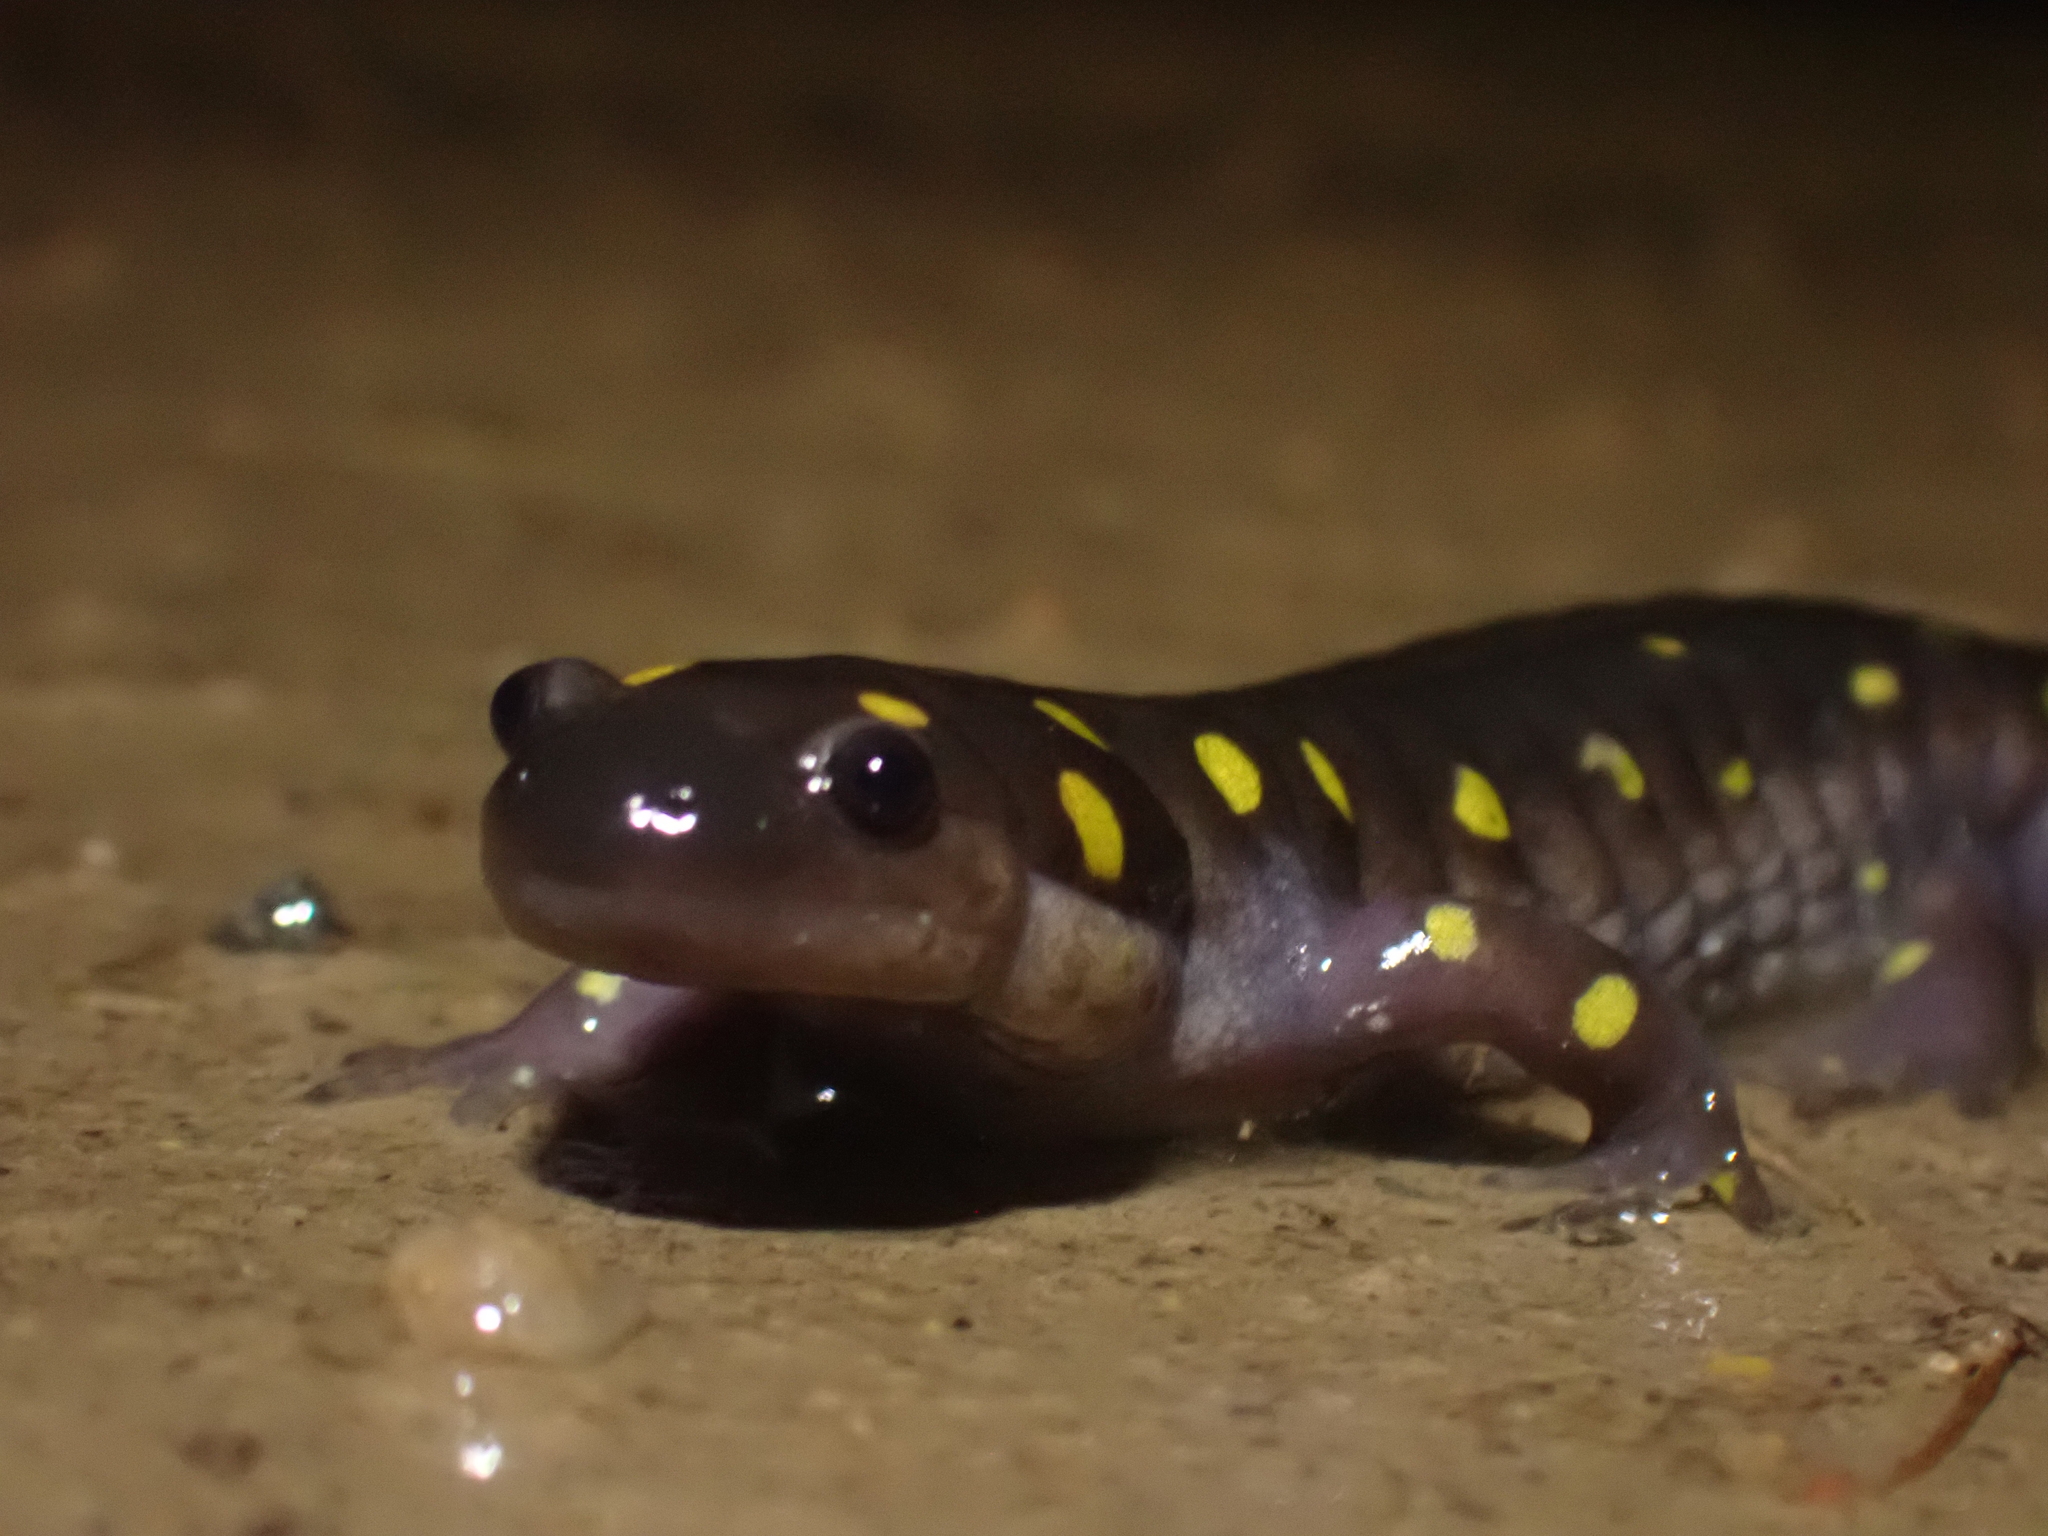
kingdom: Animalia
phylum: Chordata
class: Amphibia
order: Caudata
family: Ambystomatidae
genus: Ambystoma
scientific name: Ambystoma maculatum
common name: Spotted salamander
